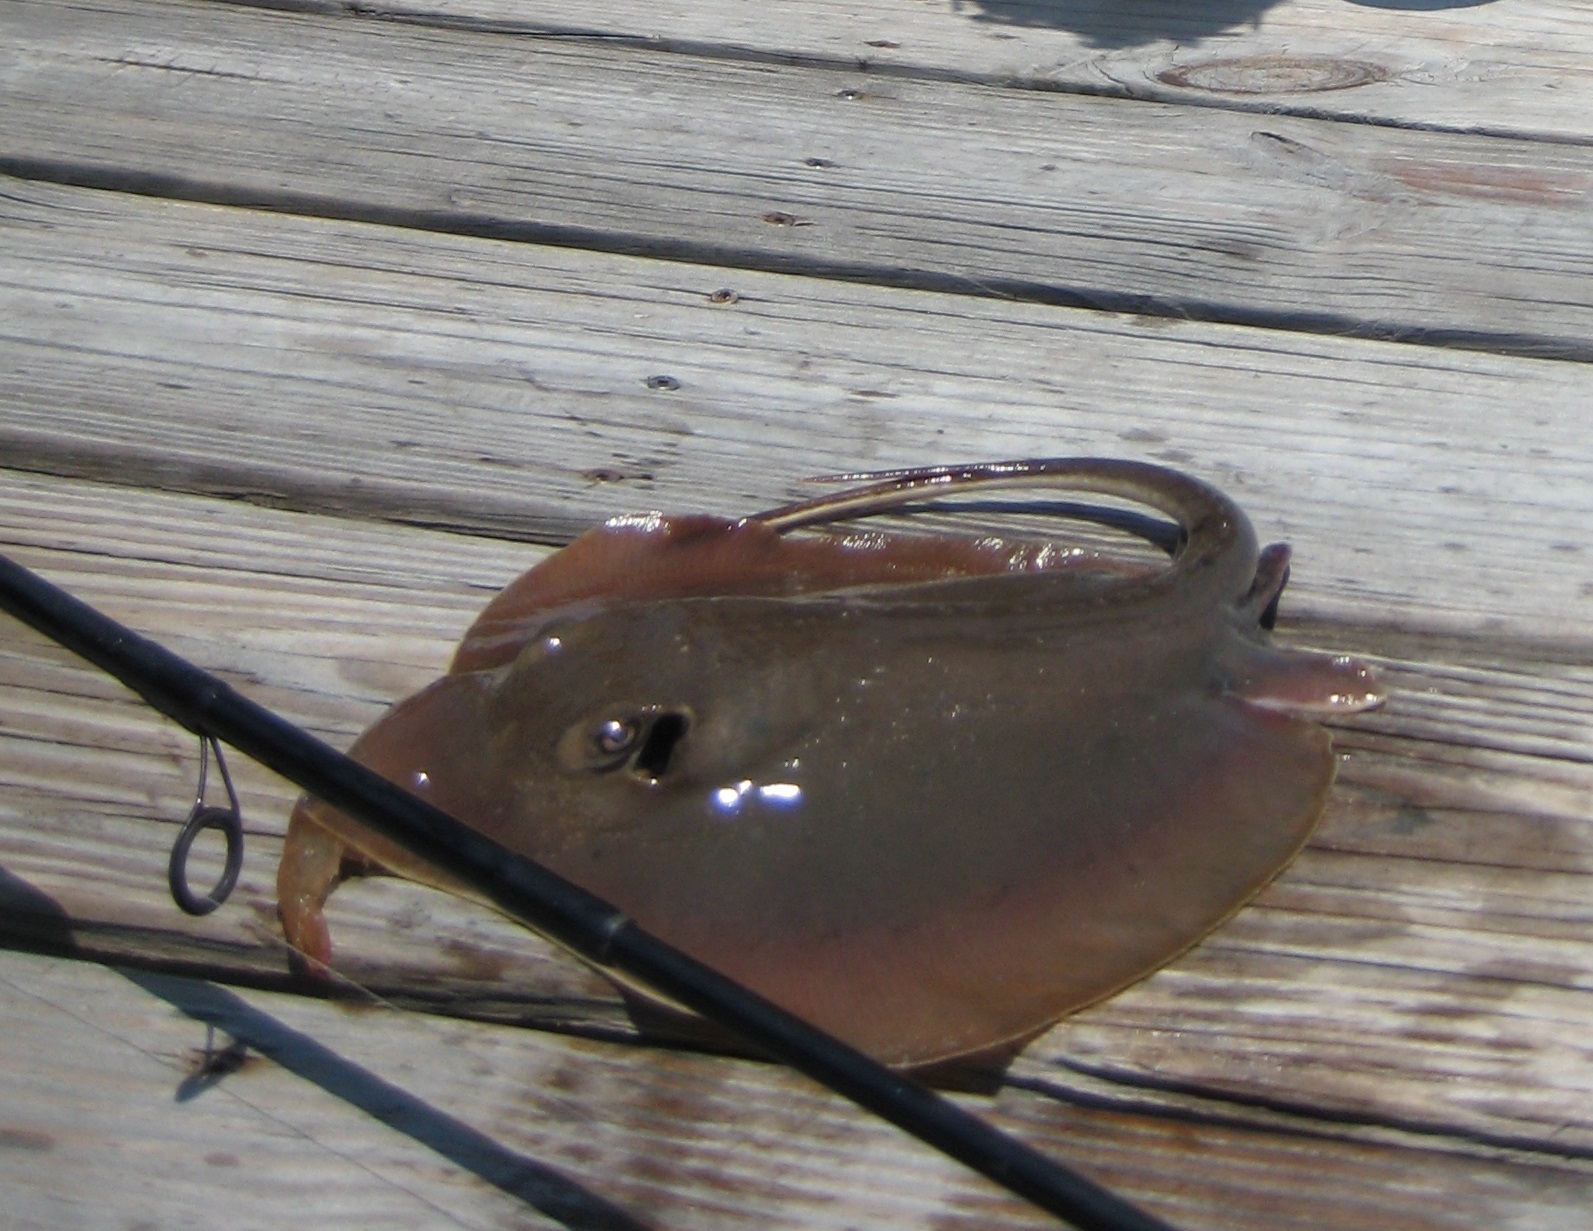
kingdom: Animalia
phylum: Chordata
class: Elasmobranchii
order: Myliobatiformes
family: Dasyatidae
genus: Hypanus
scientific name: Hypanus sabinus
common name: Atlantic stingray
